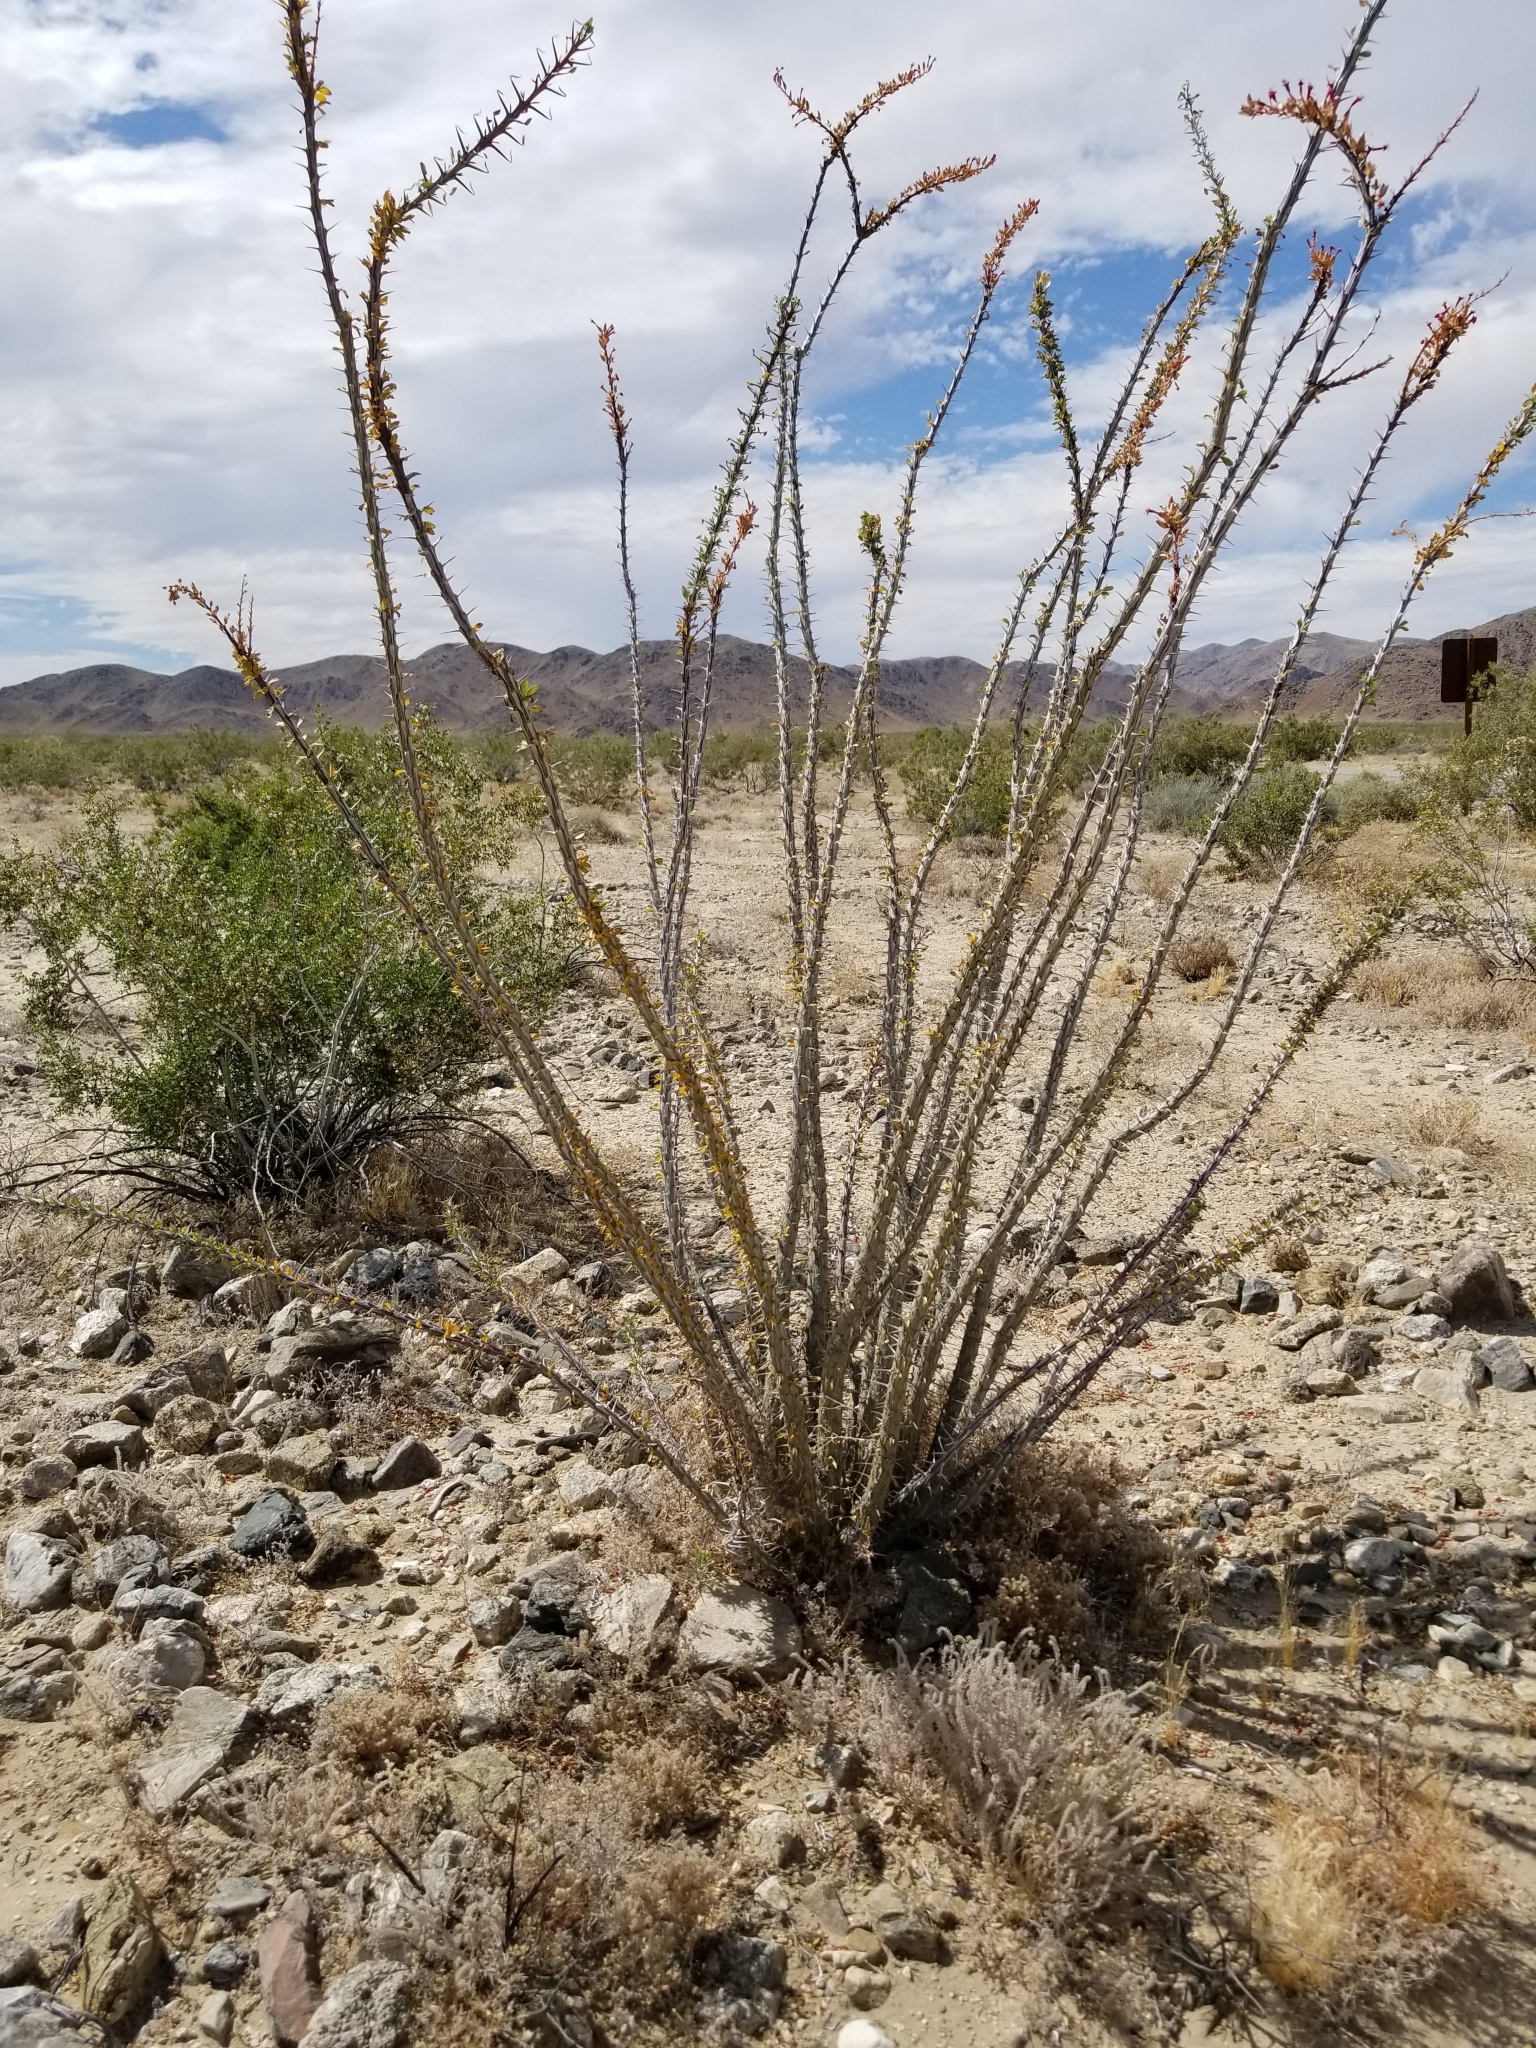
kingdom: Plantae
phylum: Tracheophyta
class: Magnoliopsida
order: Ericales
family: Fouquieriaceae
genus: Fouquieria
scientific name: Fouquieria splendens
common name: Vine-cactus
